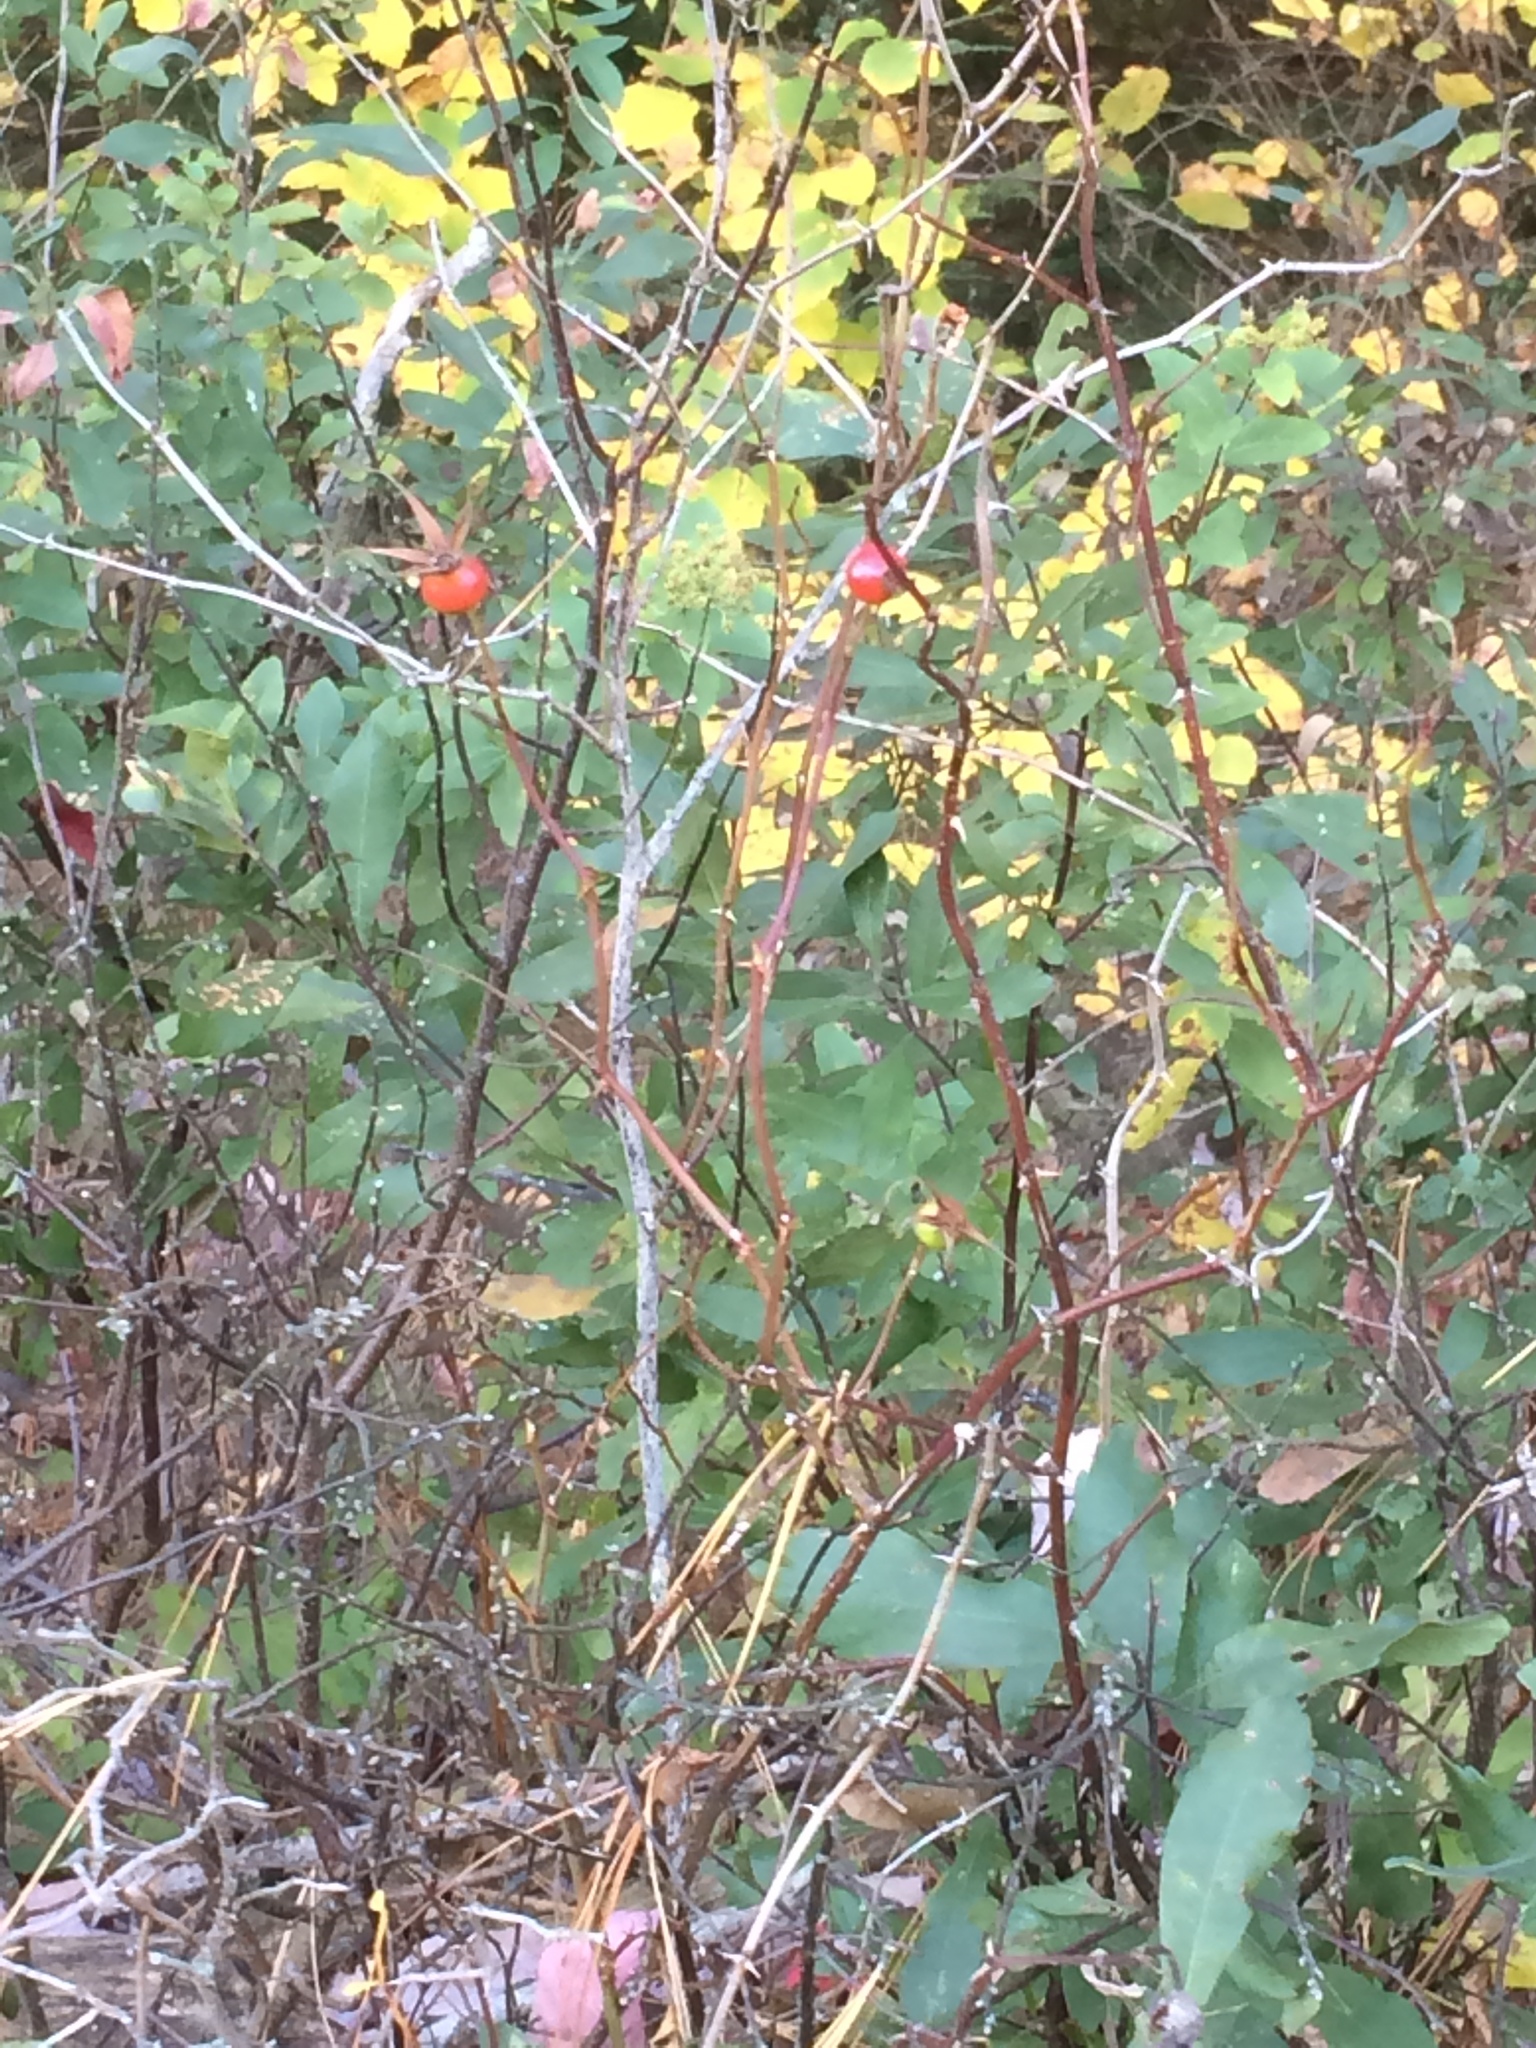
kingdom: Plantae
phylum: Tracheophyta
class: Magnoliopsida
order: Rosales
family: Rosaceae
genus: Rosa
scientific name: Rosa palustris
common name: Swamp rose
